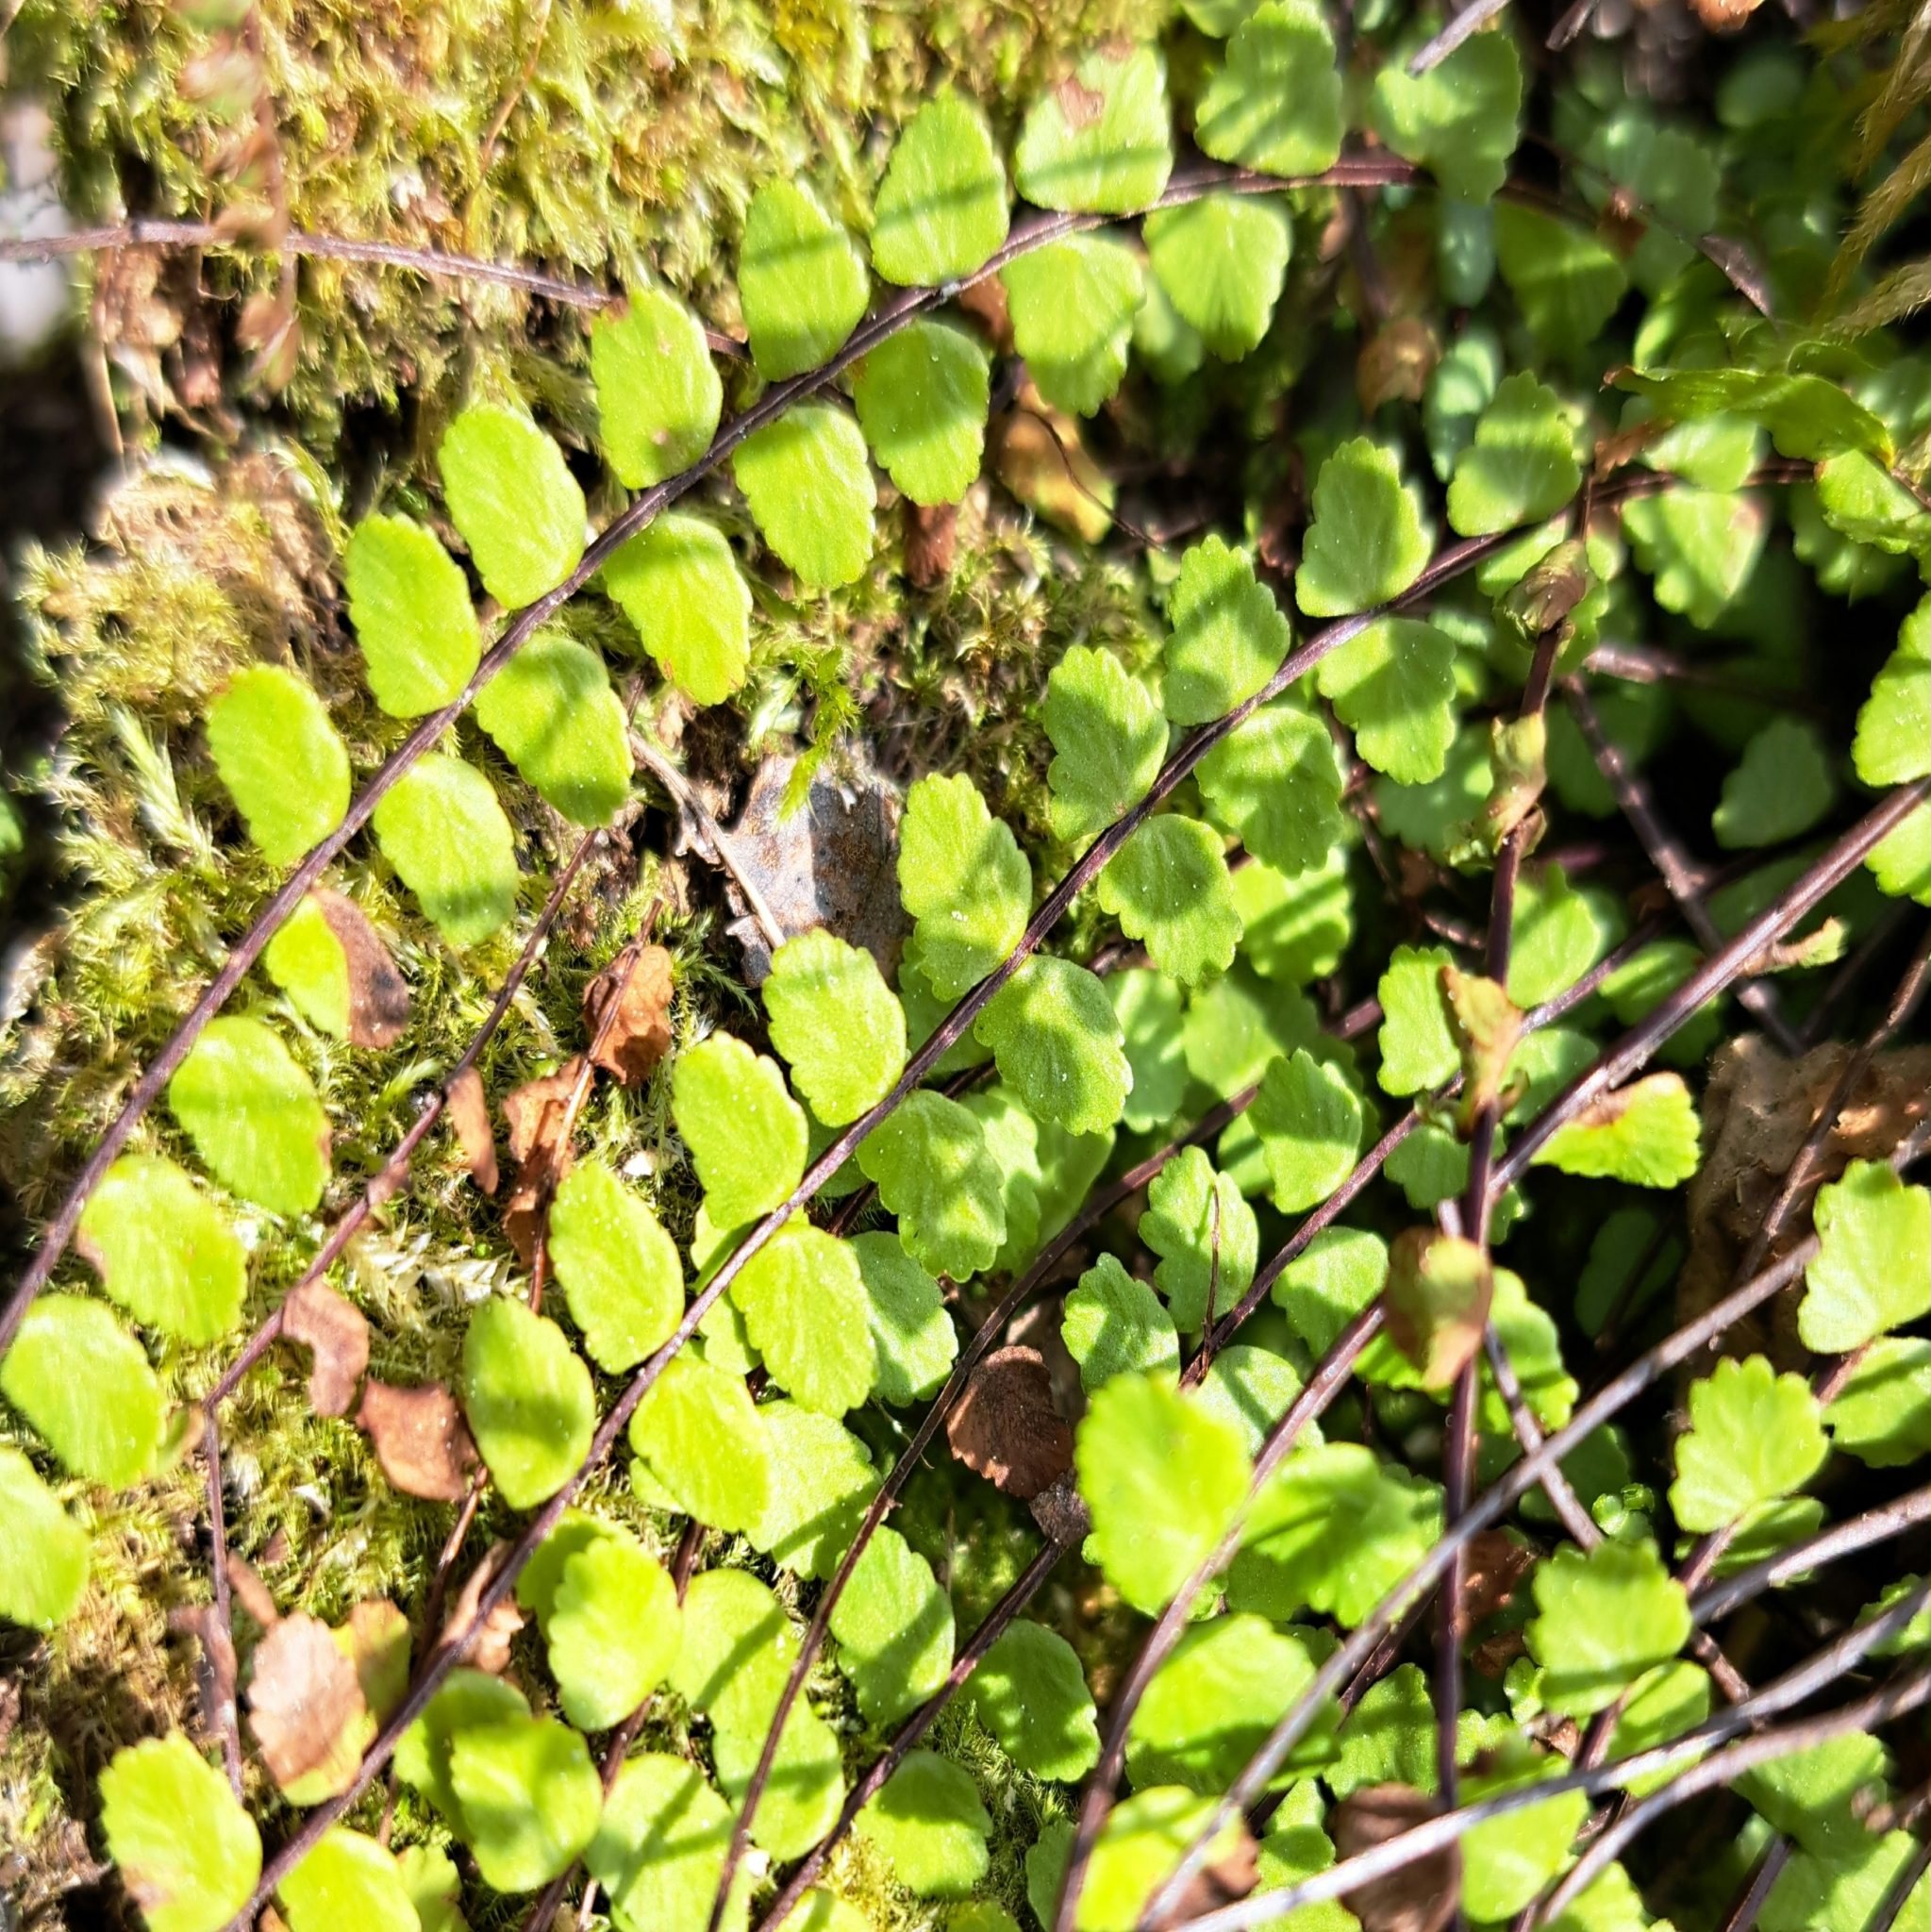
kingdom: Plantae
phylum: Tracheophyta
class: Polypodiopsida
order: Polypodiales
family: Aspleniaceae
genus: Asplenium
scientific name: Asplenium trichomanes
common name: Maidenhair spleenwort
